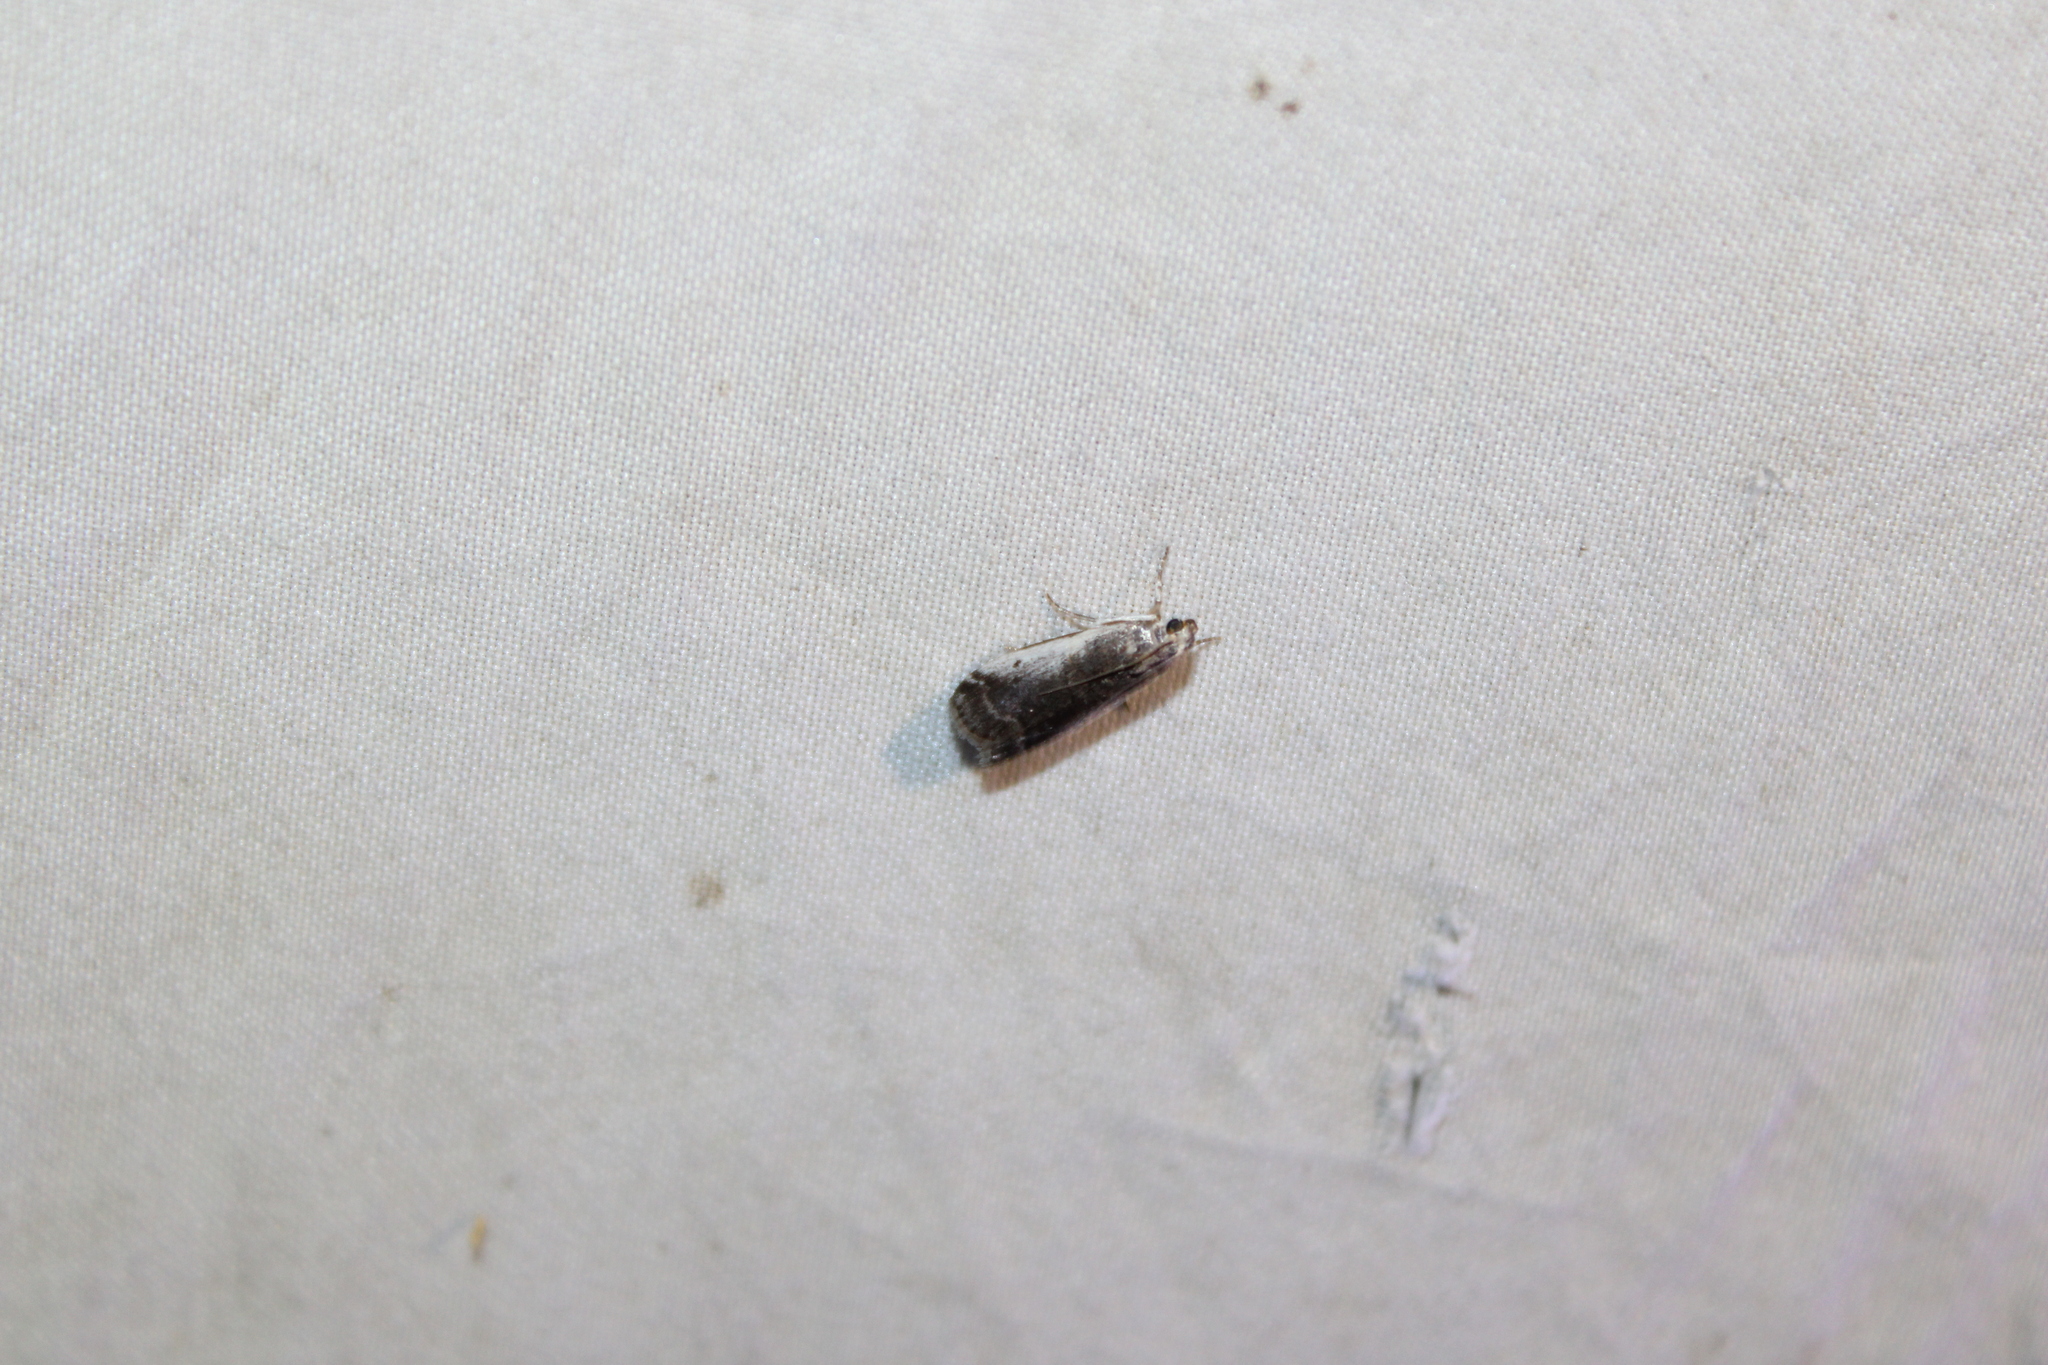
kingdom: Animalia
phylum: Arthropoda
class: Insecta
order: Lepidoptera
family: Pyralidae
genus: Acrobasis
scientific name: Acrobasis caryivorella
